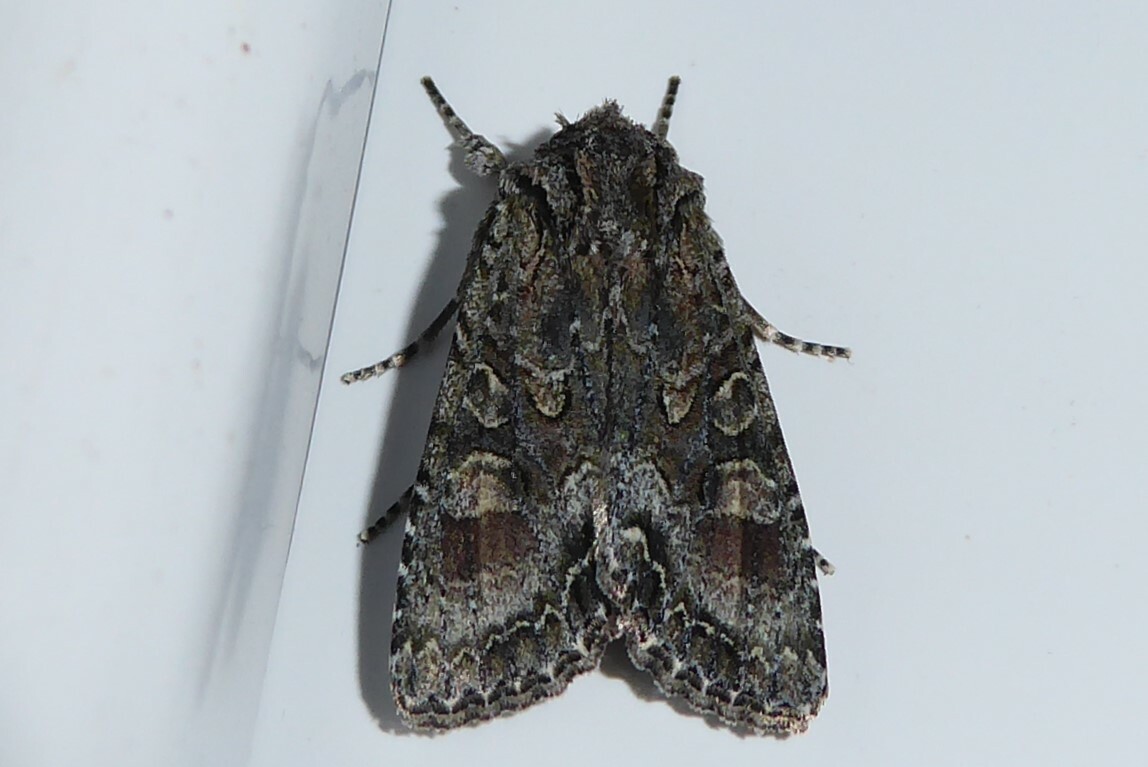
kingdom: Animalia
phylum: Arthropoda
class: Insecta
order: Lepidoptera
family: Noctuidae
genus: Ichneutica
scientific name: Ichneutica mutans
